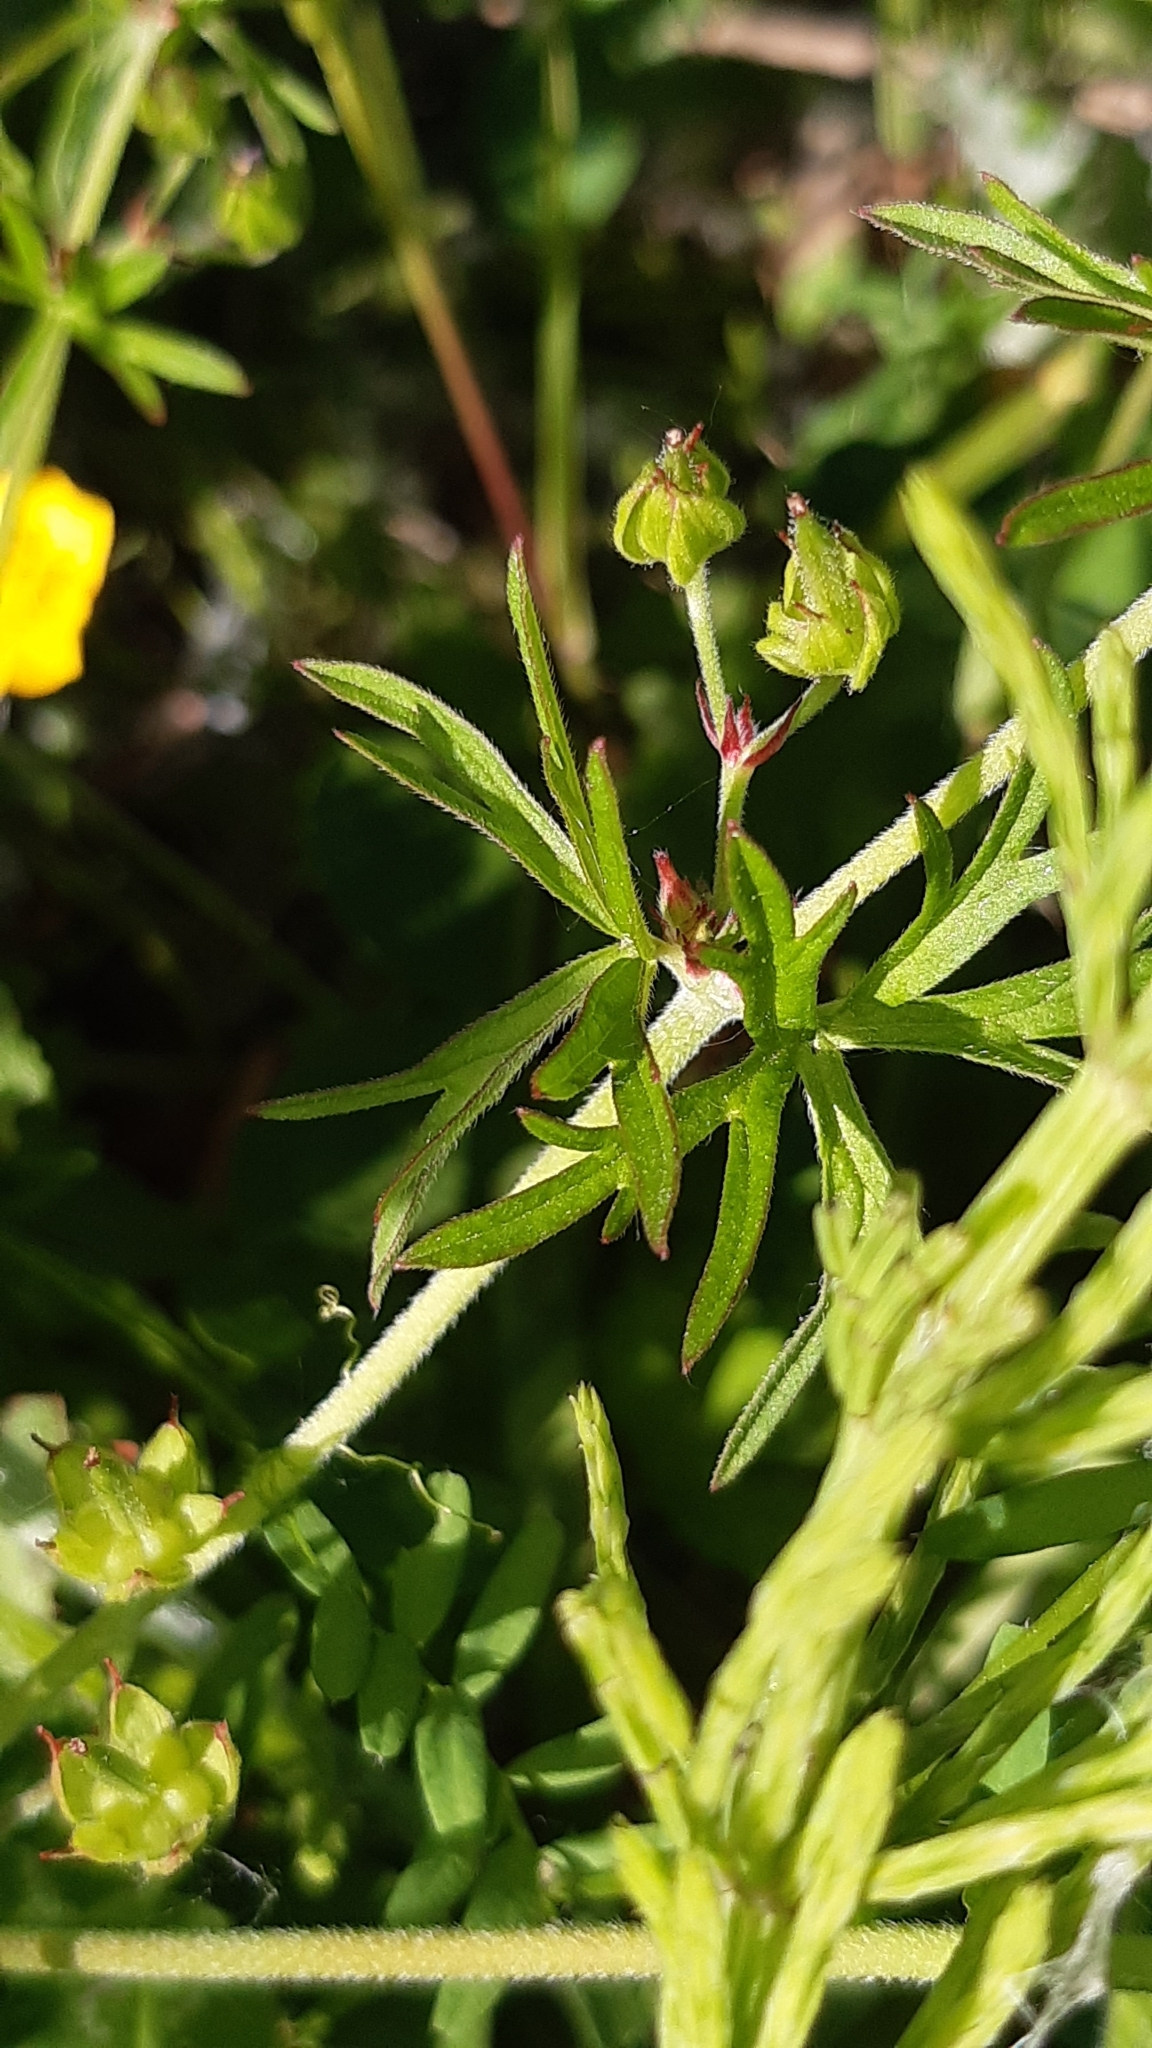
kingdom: Plantae
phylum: Tracheophyta
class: Magnoliopsida
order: Geraniales
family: Geraniaceae
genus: Geranium
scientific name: Geranium dissectum
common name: Cut-leaved crane's-bill
